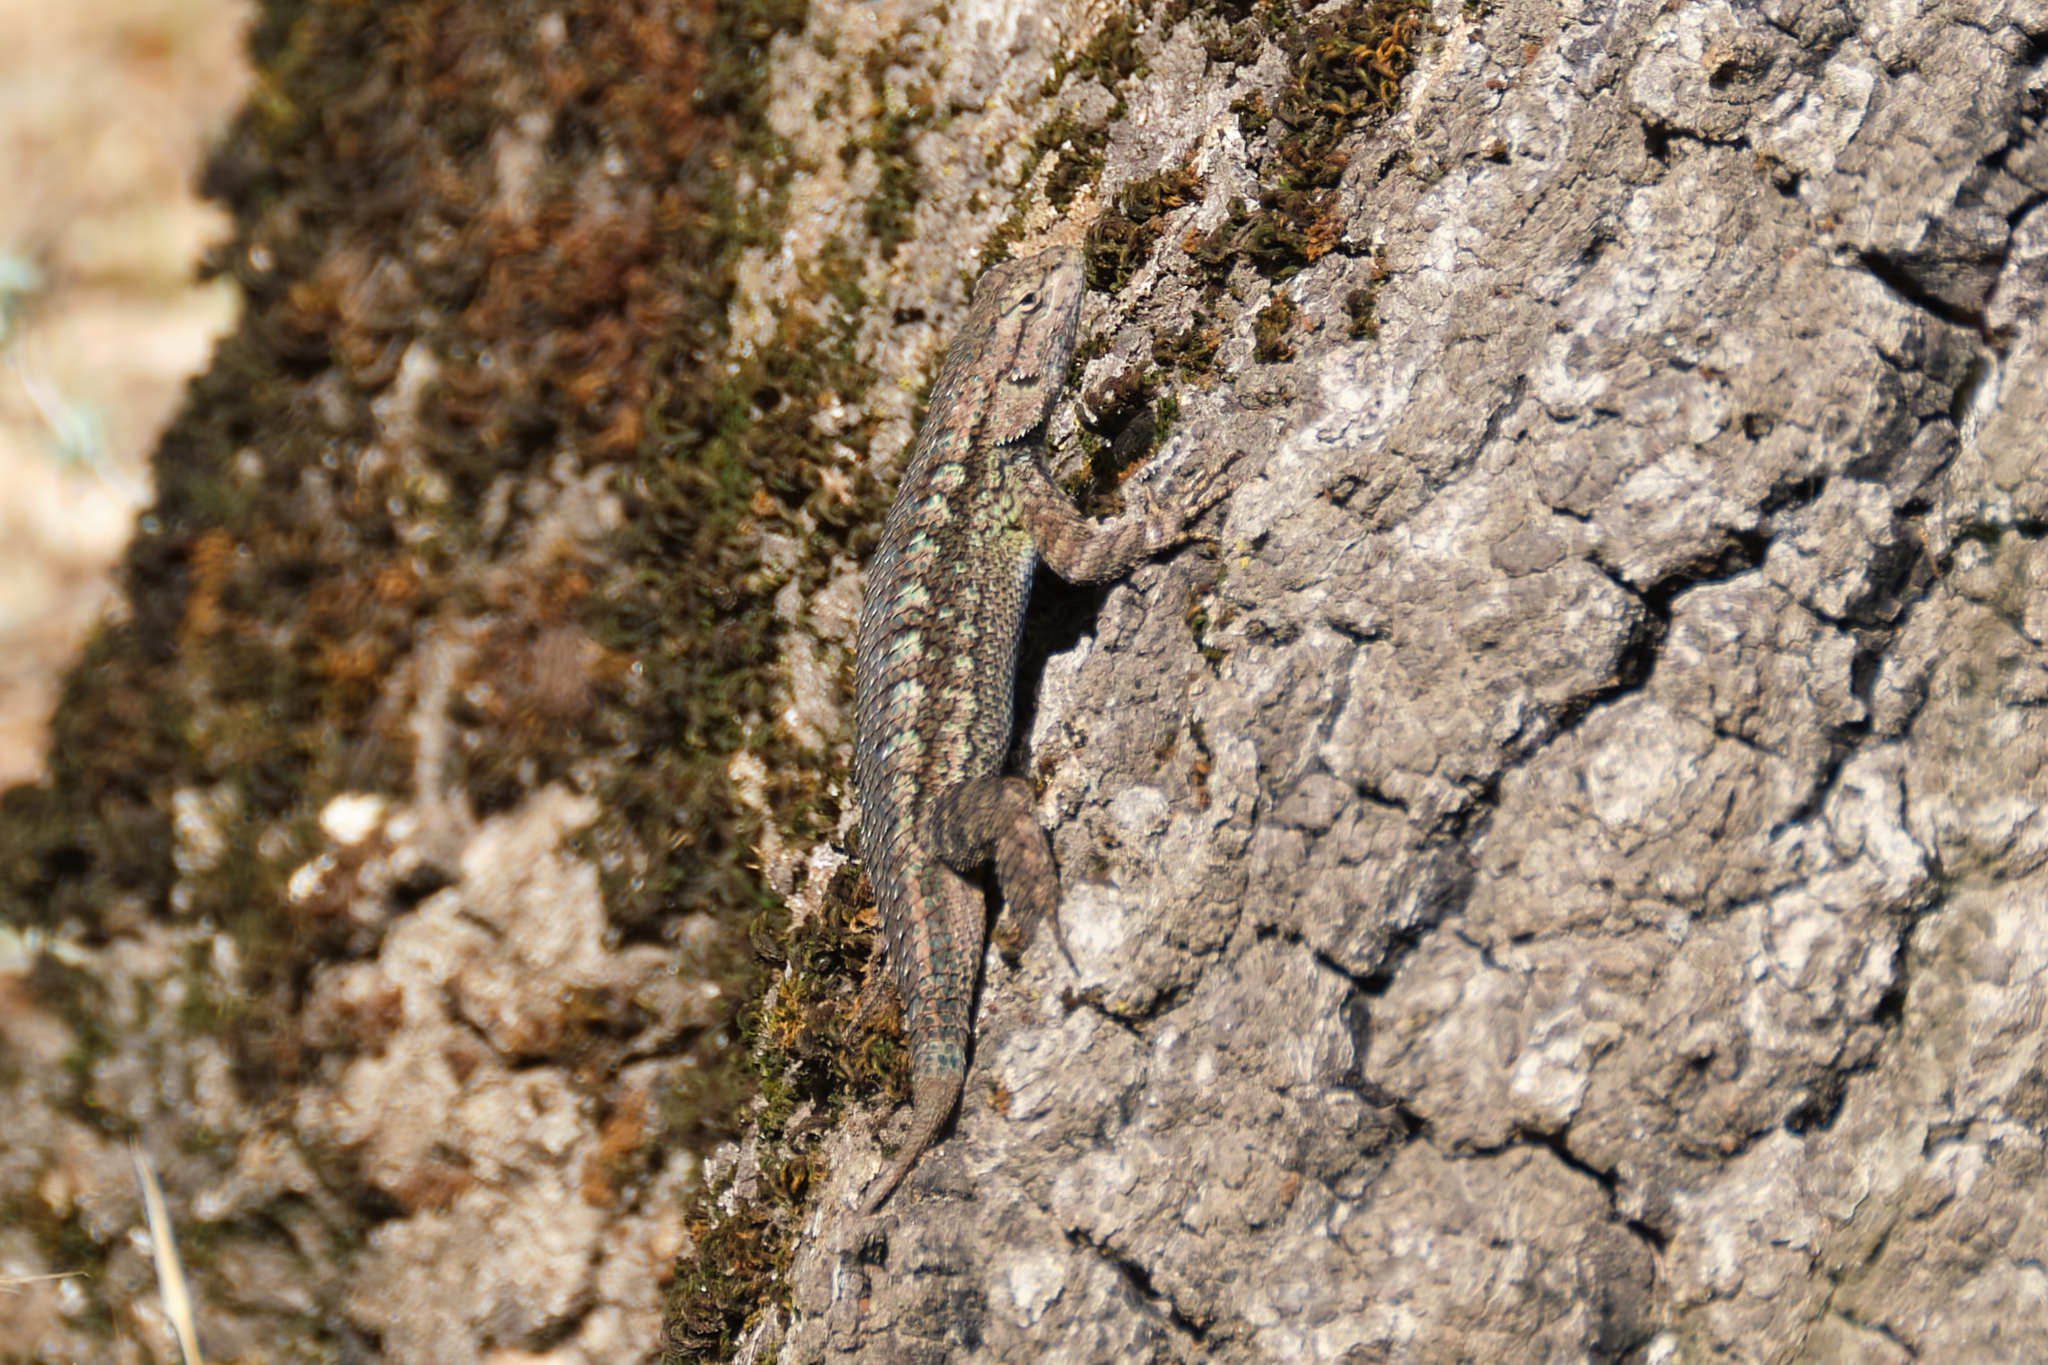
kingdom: Animalia
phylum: Chordata
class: Squamata
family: Phrynosomatidae
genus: Sceloporus
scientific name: Sceloporus occidentalis
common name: Western fence lizard
